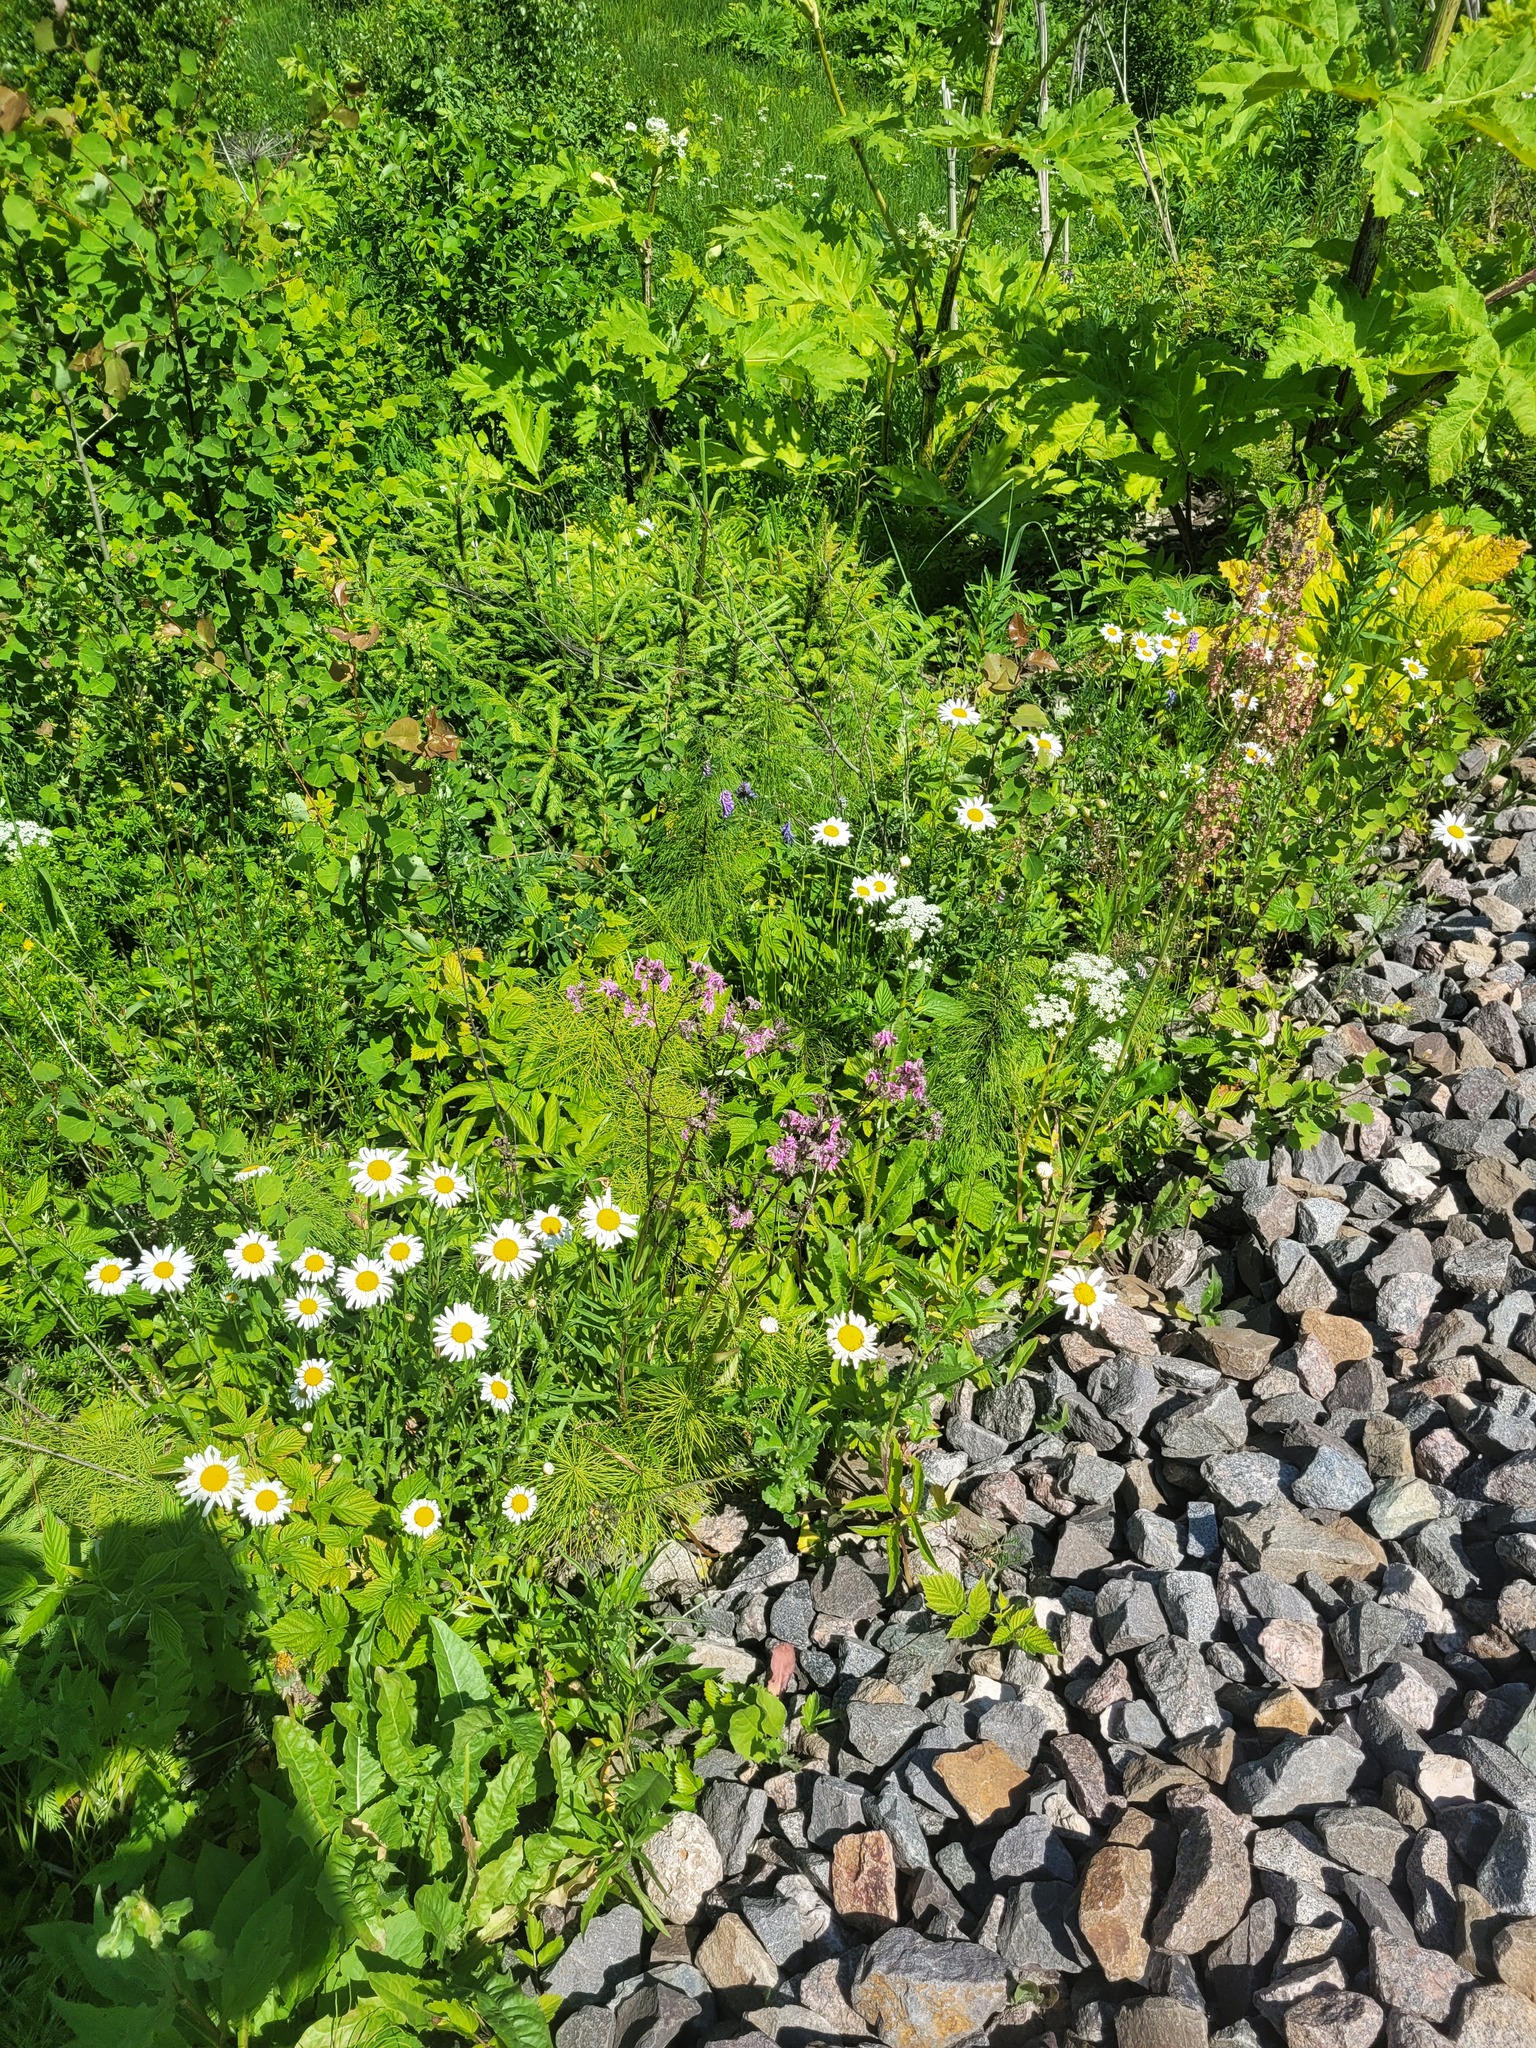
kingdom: Plantae
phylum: Tracheophyta
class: Magnoliopsida
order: Caryophyllales
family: Caryophyllaceae
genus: Silene
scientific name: Silene flos-cuculi
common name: Ragged-robin
